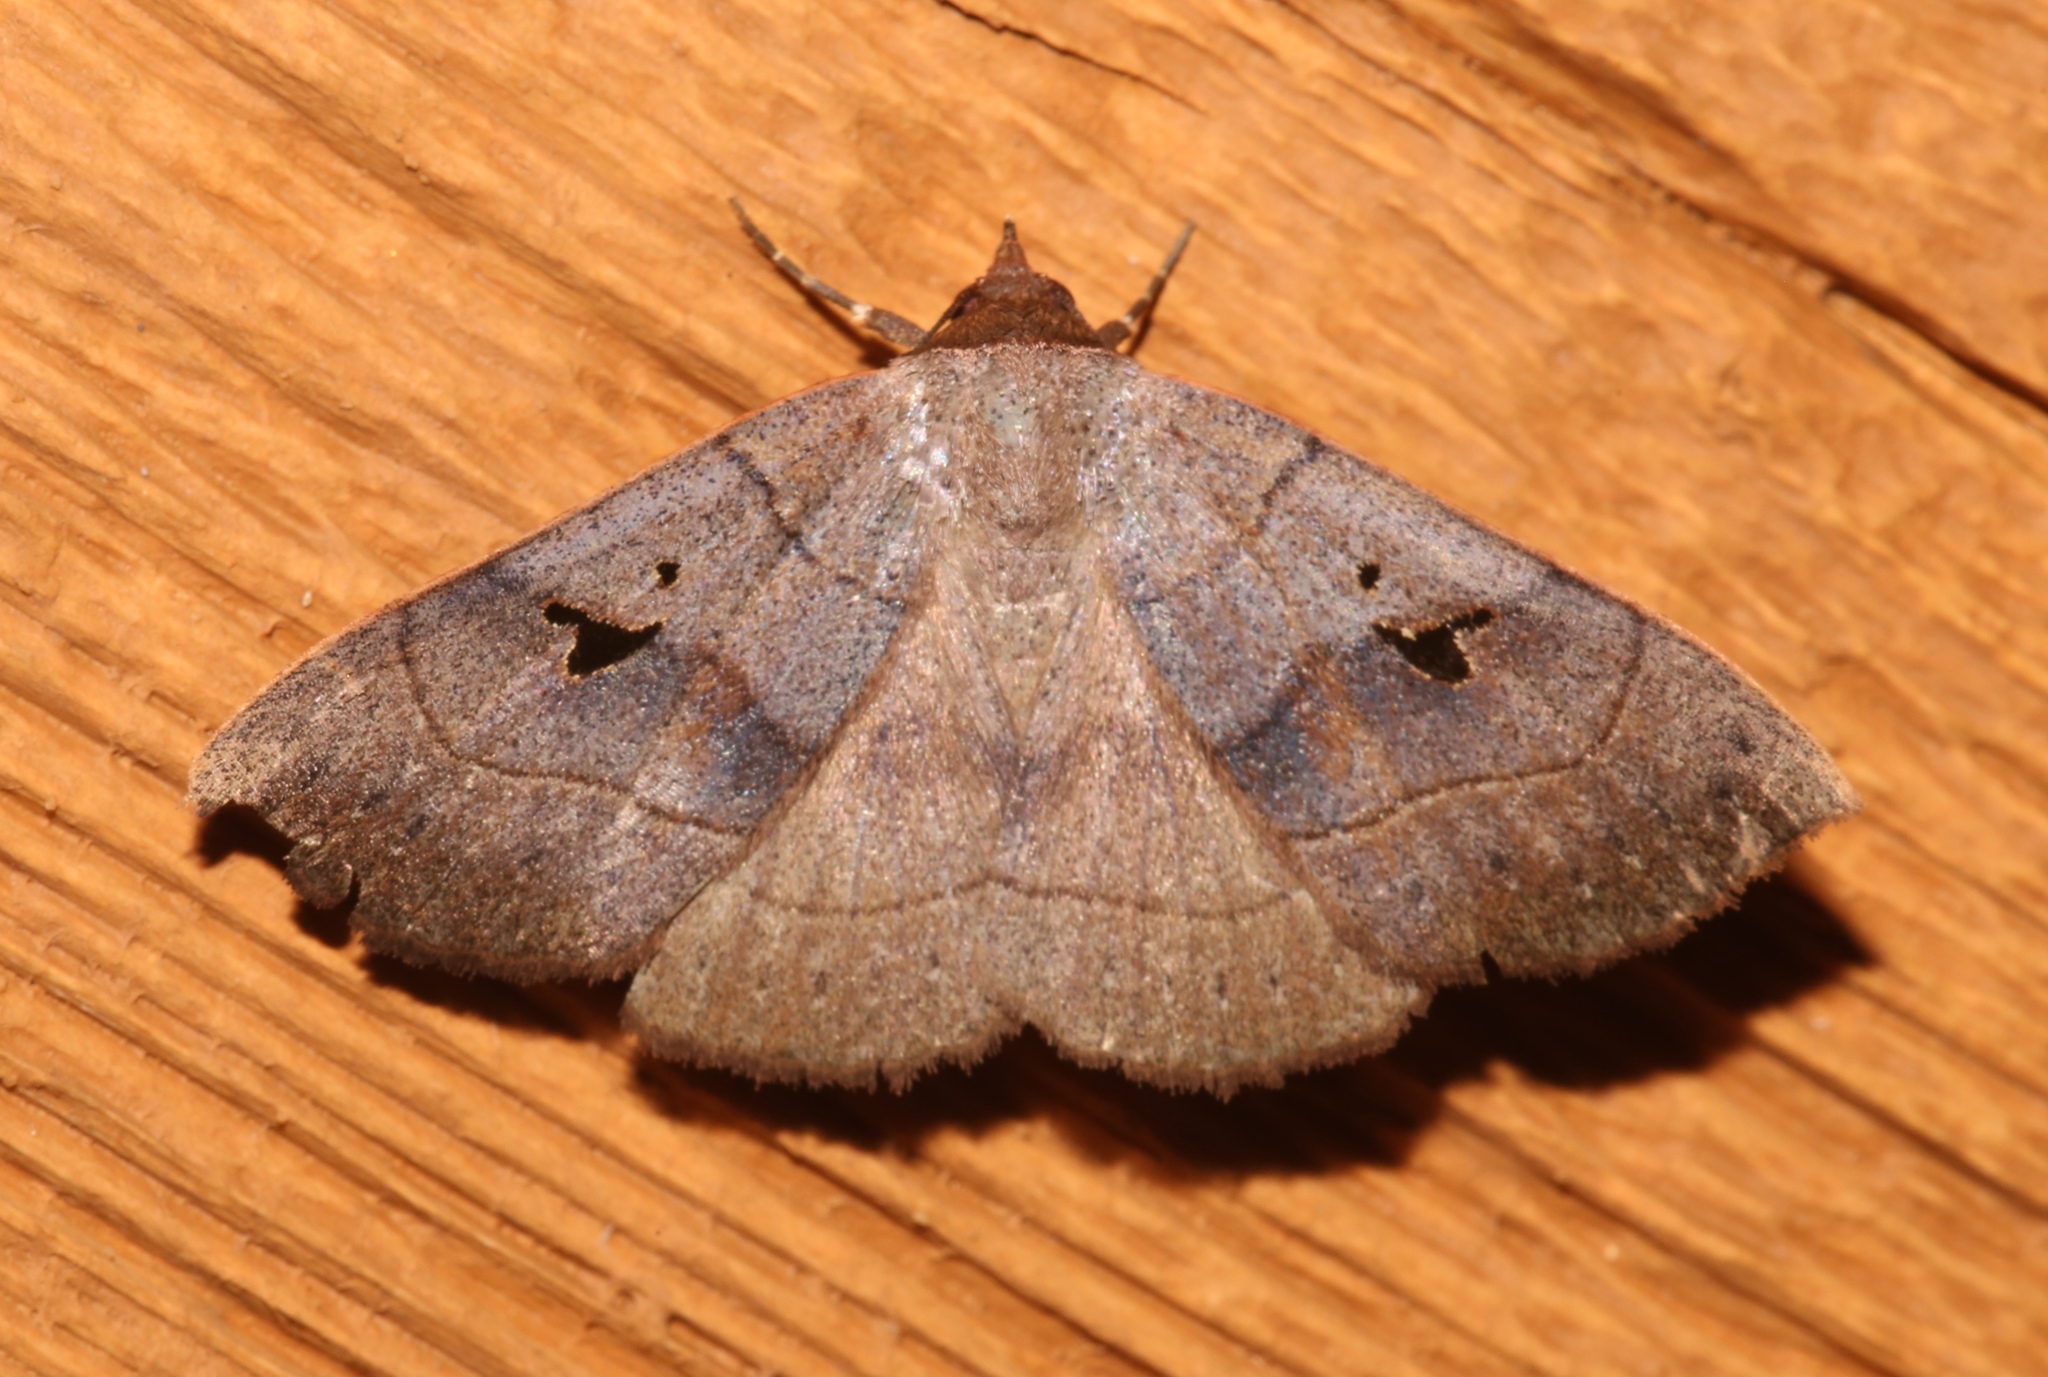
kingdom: Animalia
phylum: Arthropoda
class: Insecta
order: Lepidoptera
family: Erebidae
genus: Panopoda
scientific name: Panopoda carneicosta
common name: Brown panopoda moth
